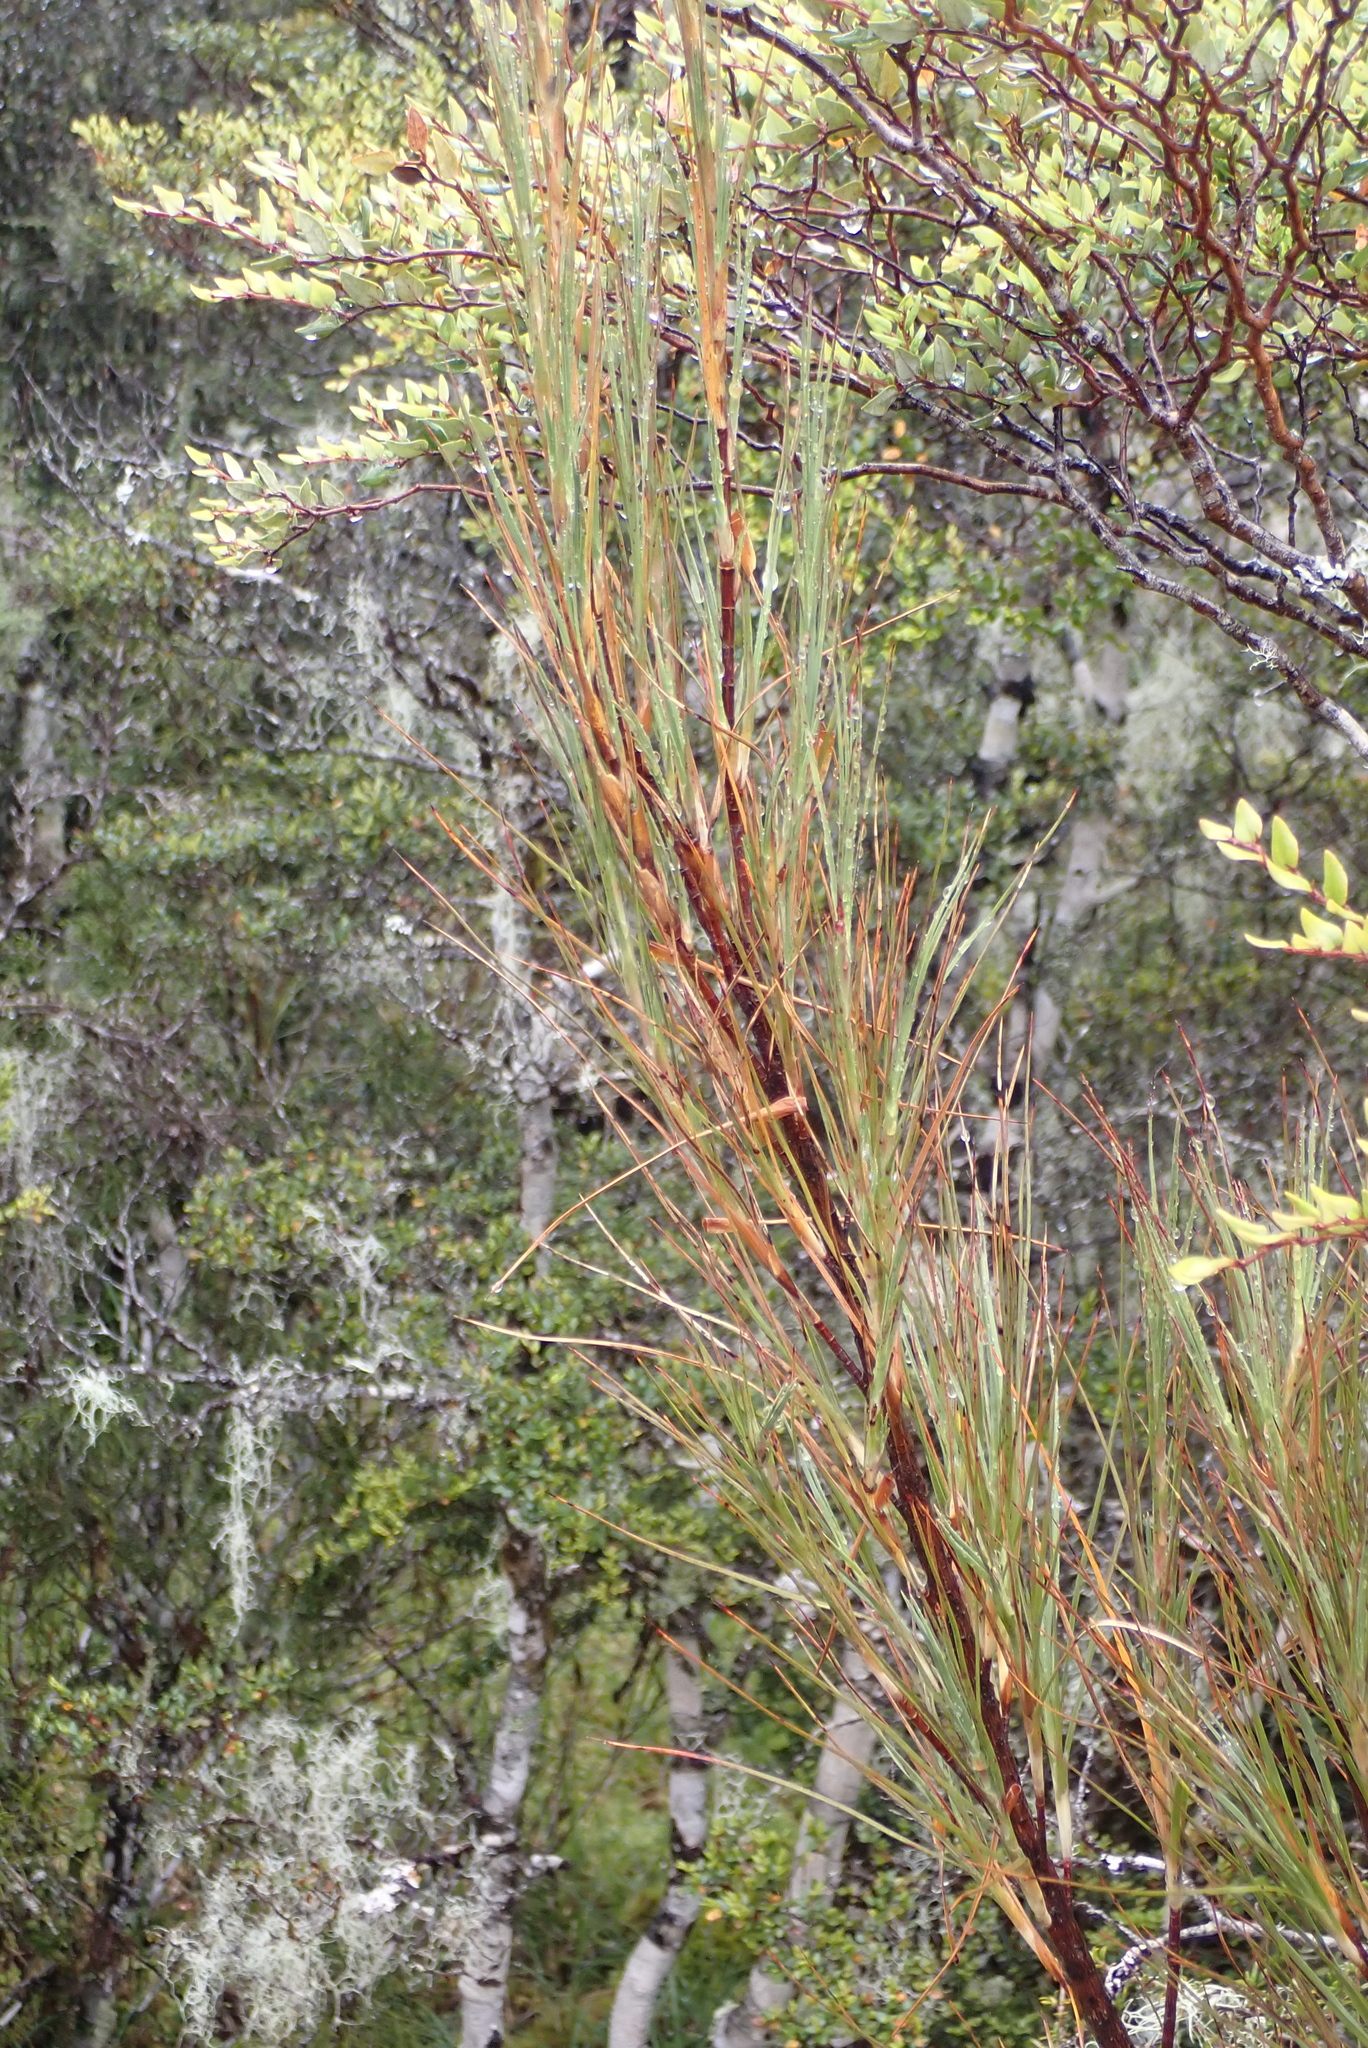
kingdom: Plantae
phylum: Tracheophyta
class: Magnoliopsida
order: Ericales
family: Ericaceae
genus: Dracophyllum
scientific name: Dracophyllum longifolium
